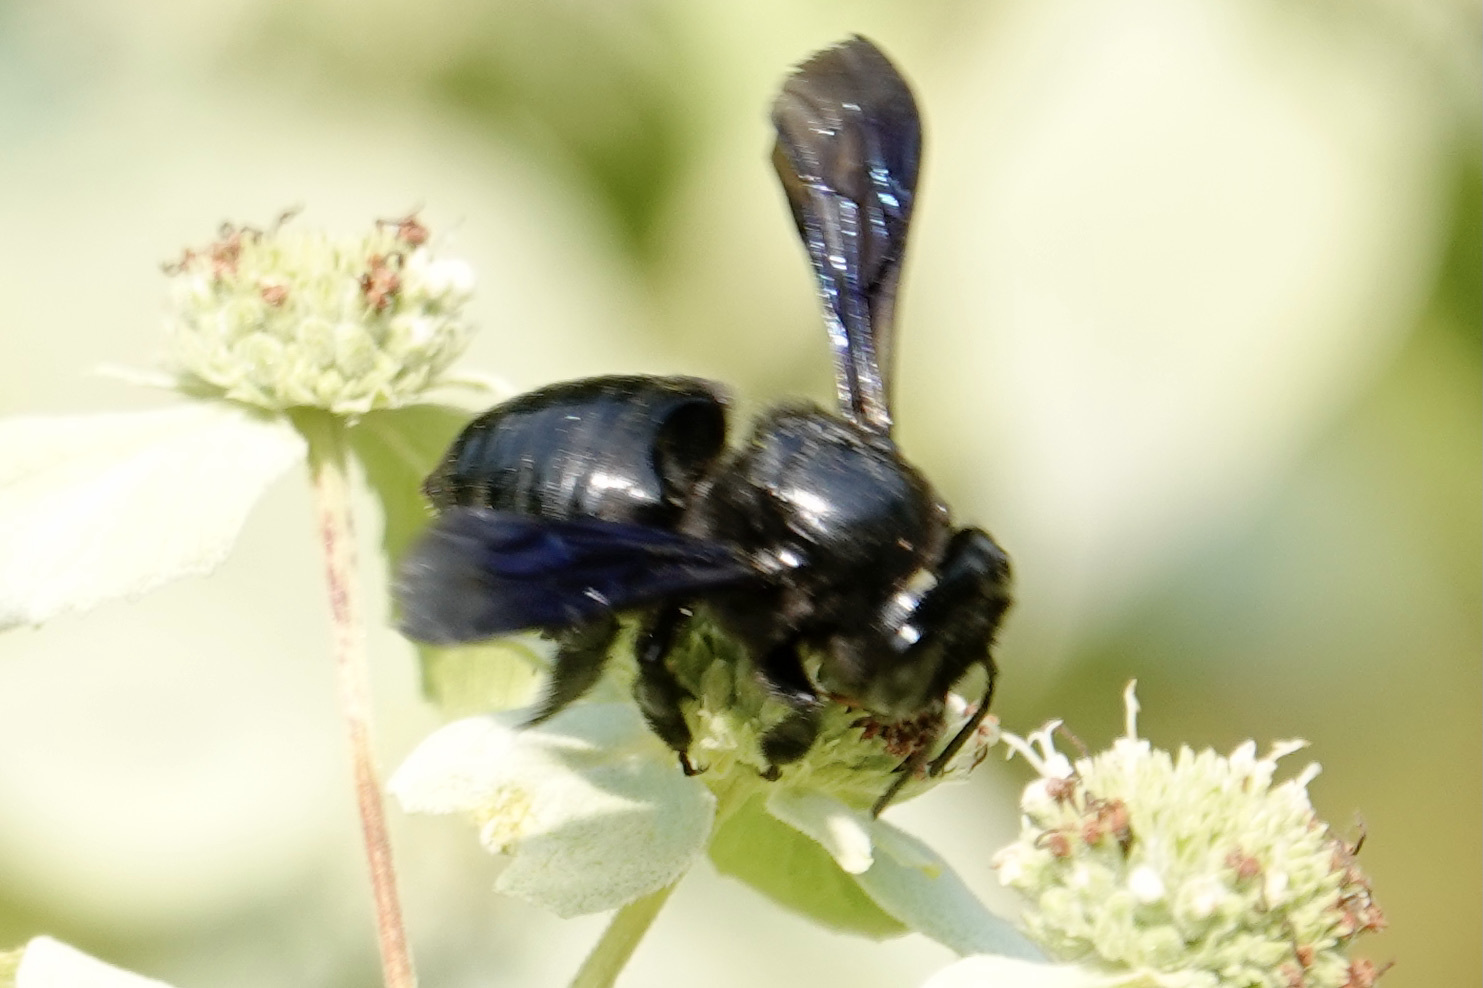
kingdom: Animalia
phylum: Arthropoda
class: Insecta
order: Hymenoptera
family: Megachilidae
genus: Megachile
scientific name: Megachile xylocopoides
